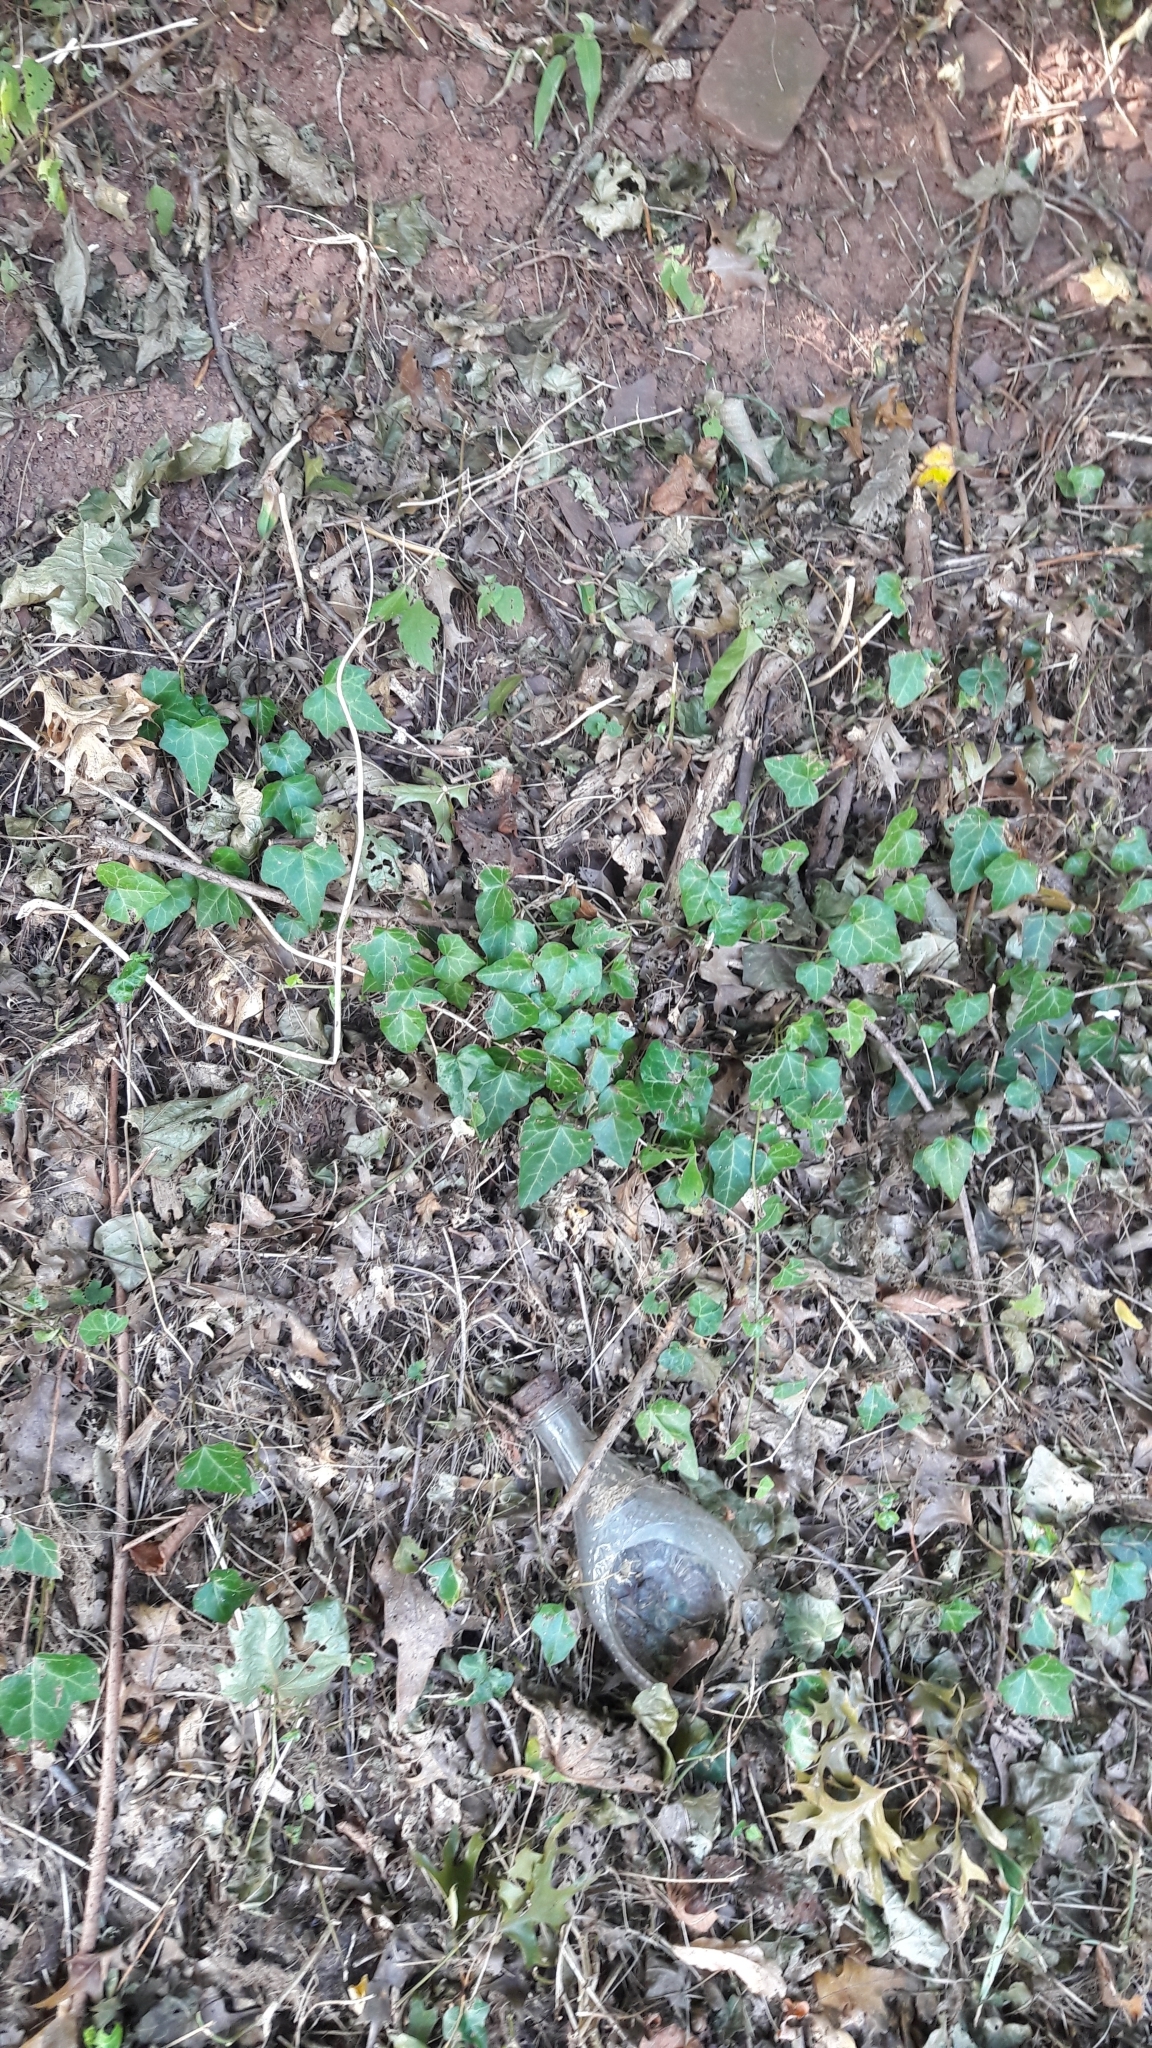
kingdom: Plantae
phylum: Tracheophyta
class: Magnoliopsida
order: Apiales
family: Araliaceae
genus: Hedera
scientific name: Hedera helix
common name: Ivy
